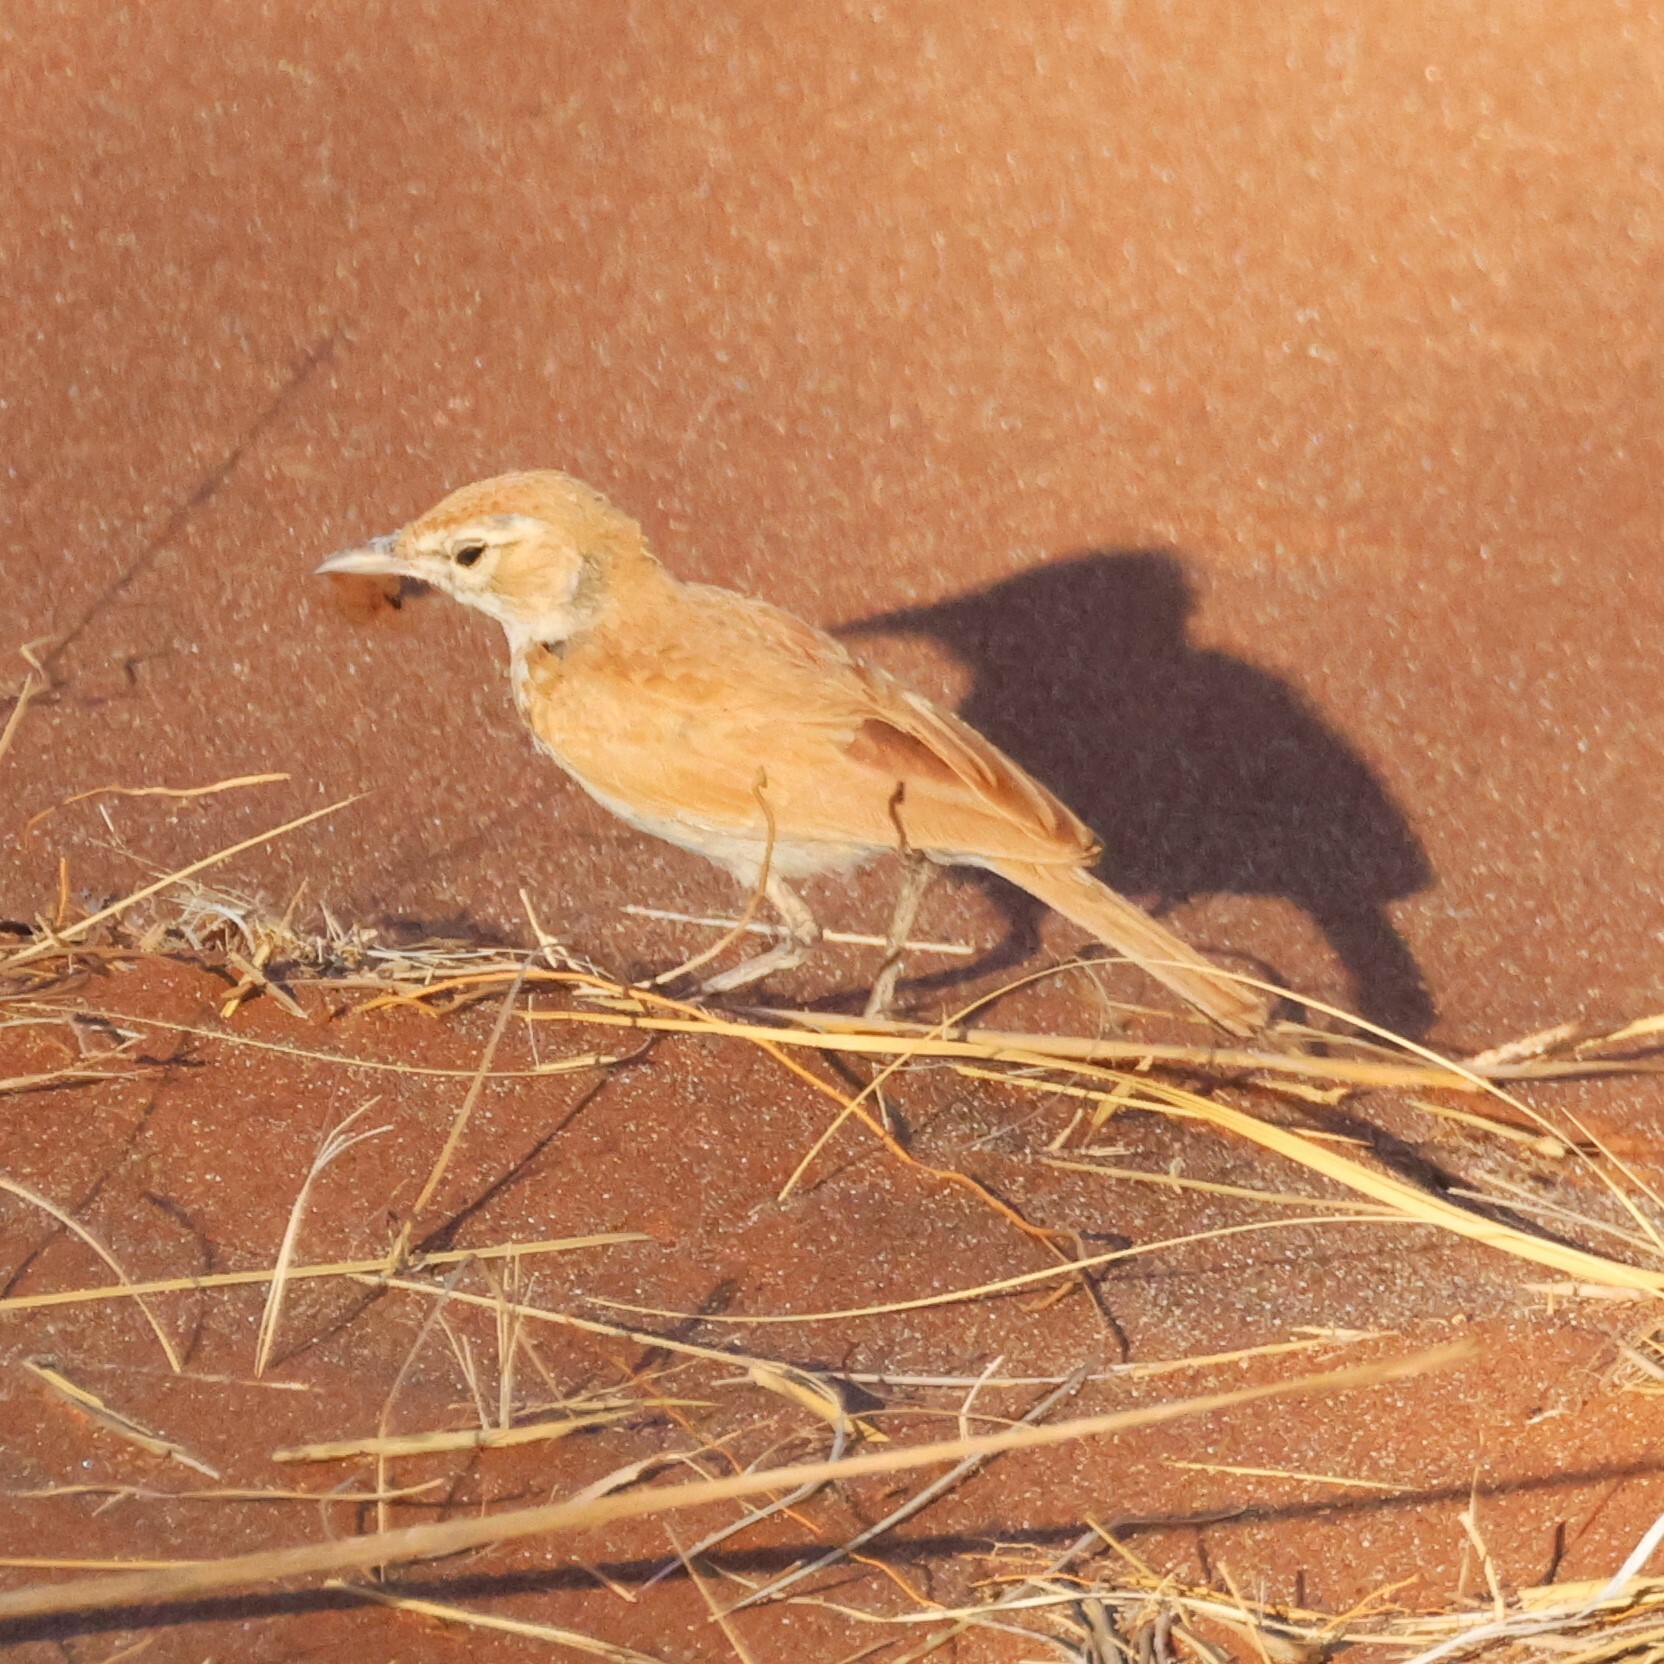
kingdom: Animalia
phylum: Chordata
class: Aves
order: Passeriformes
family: Alaudidae
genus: Calendulauda
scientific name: Calendulauda erythrochlamys
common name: Dune lark
